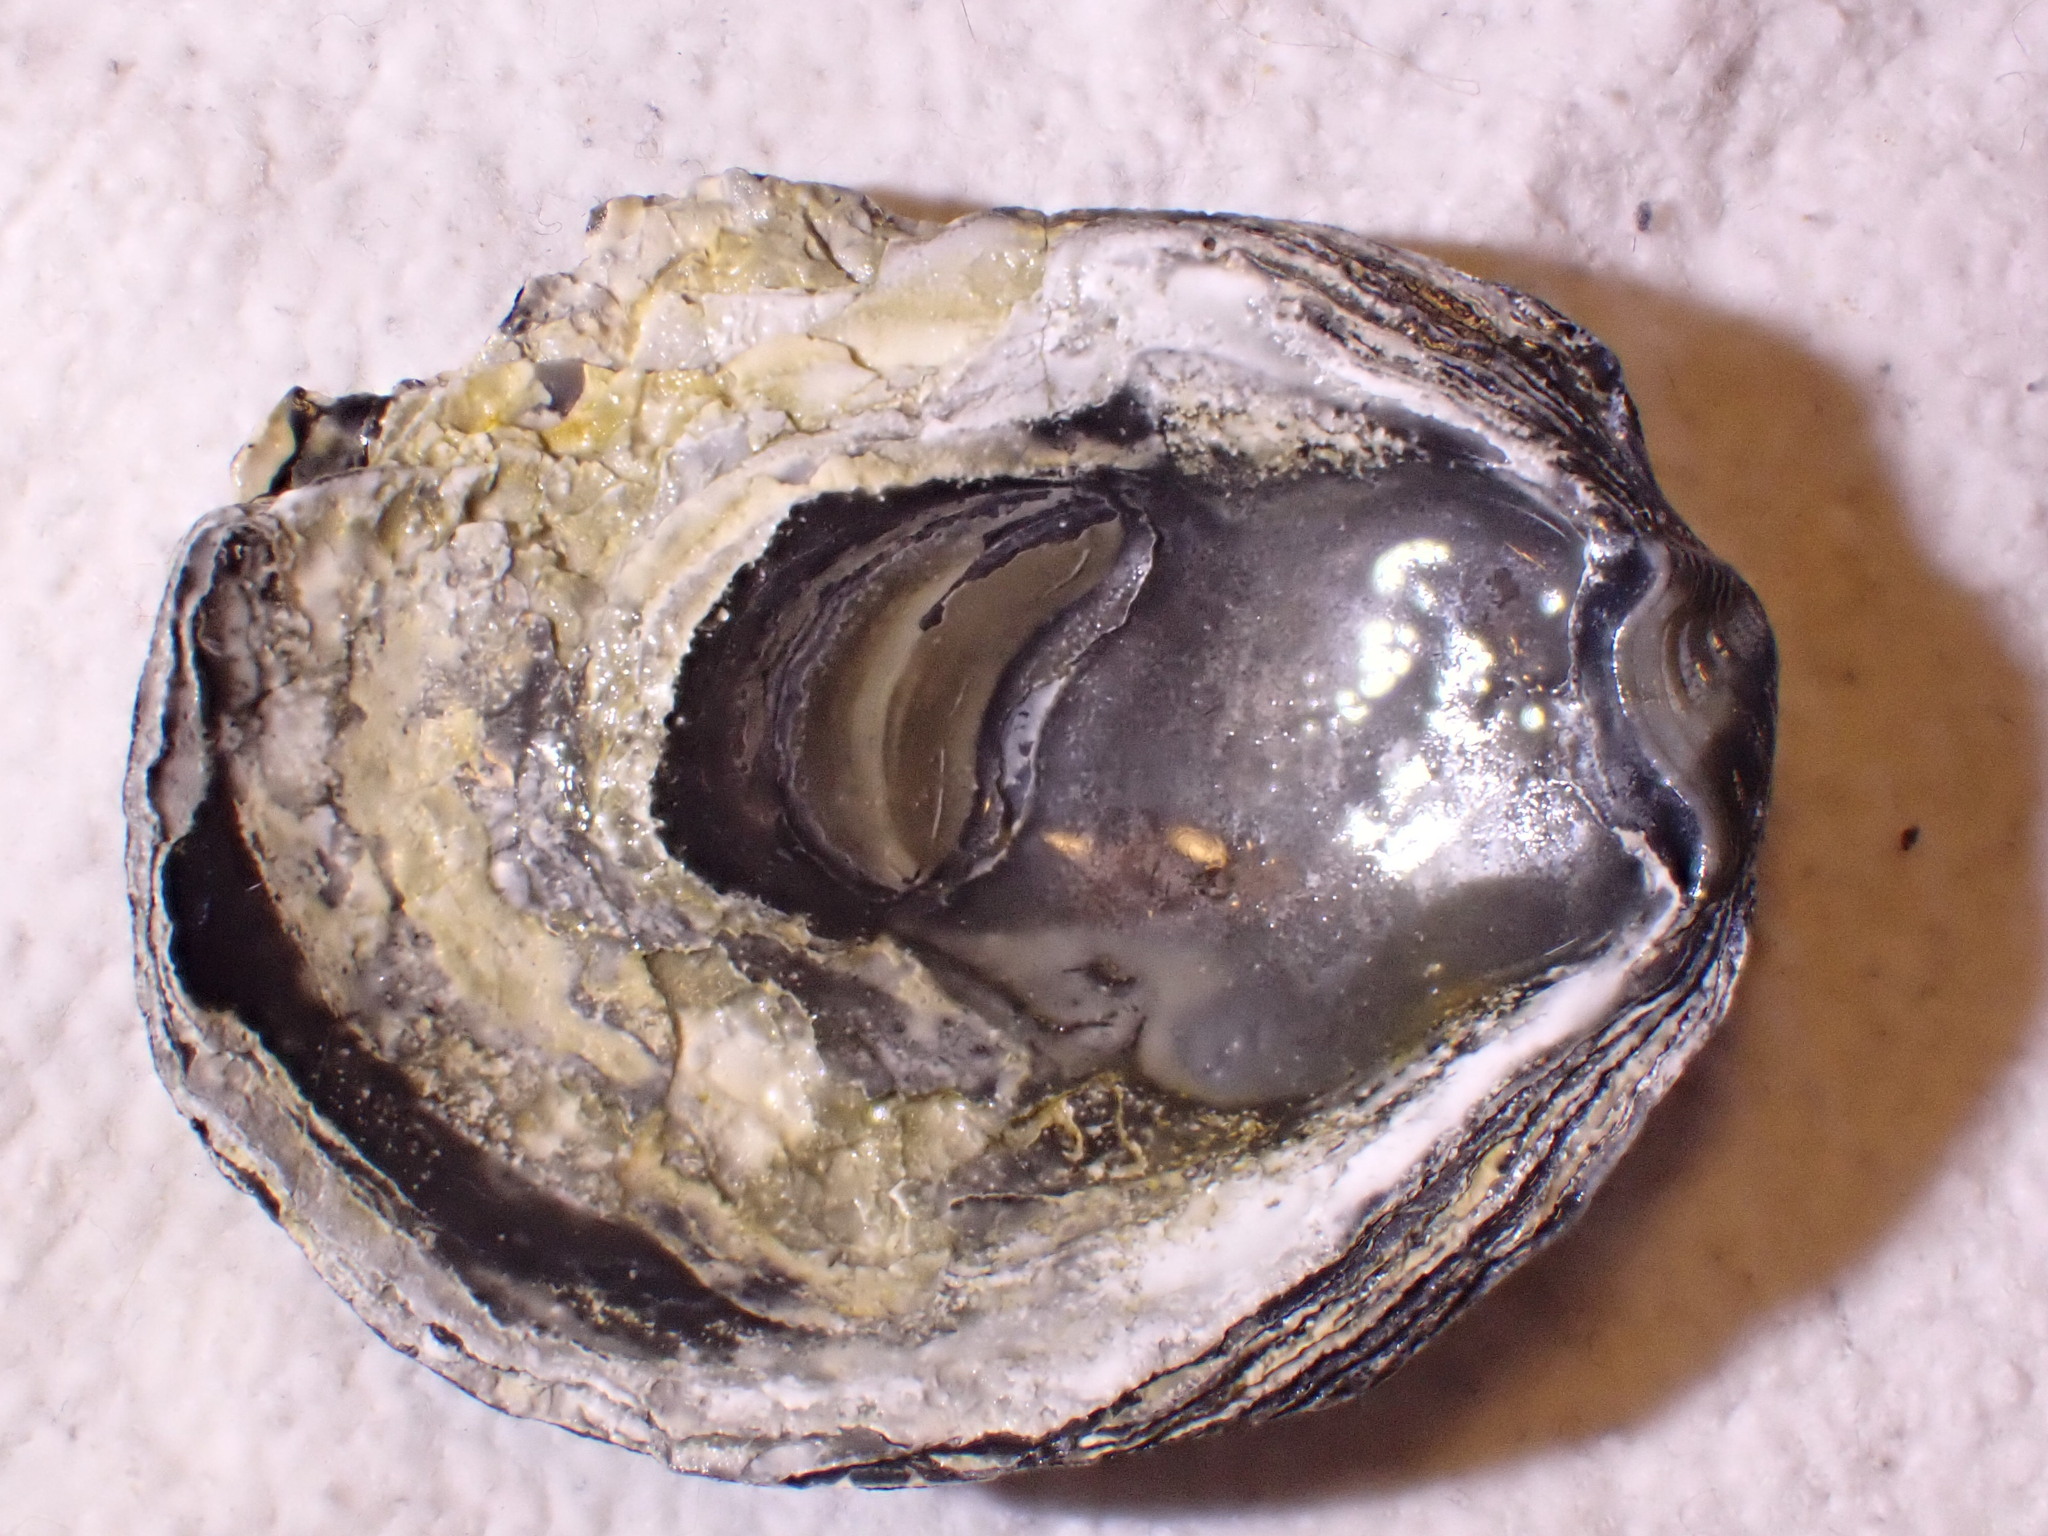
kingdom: Animalia
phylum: Mollusca
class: Bivalvia
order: Ostreida
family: Ostreidae
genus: Ostrea
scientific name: Ostrea edulis
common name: Flat oyster
